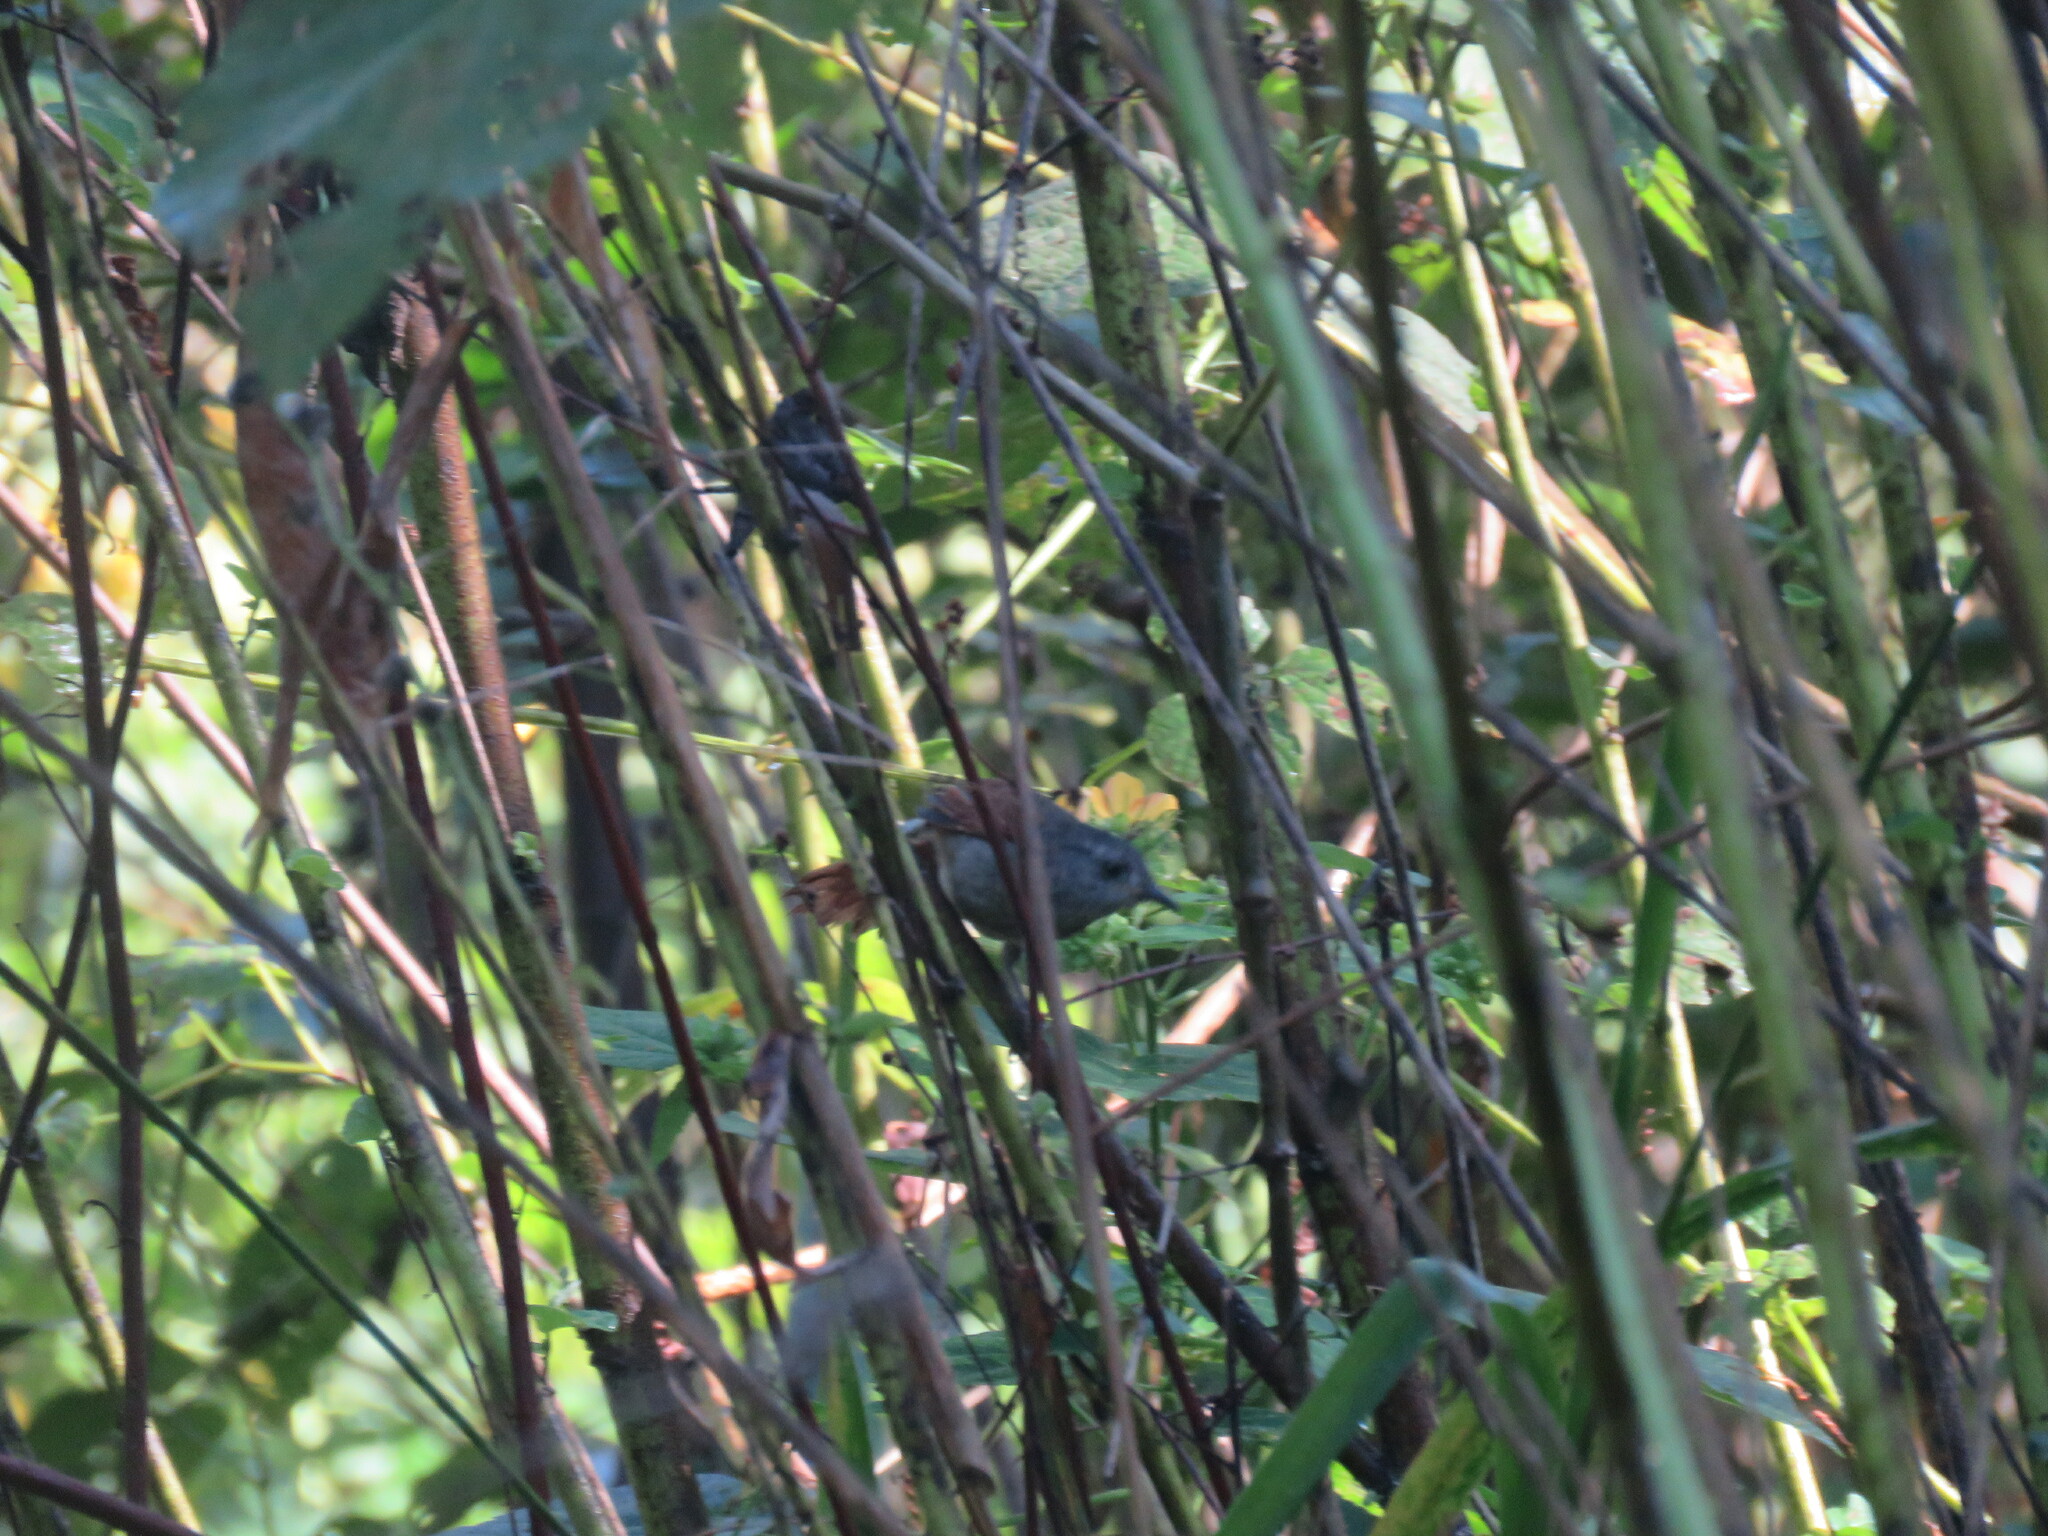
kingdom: Animalia
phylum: Chordata
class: Aves
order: Passeriformes
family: Furnariidae
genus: Synallaxis
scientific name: Synallaxis gujanensis
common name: Plain-crowned spinetail
